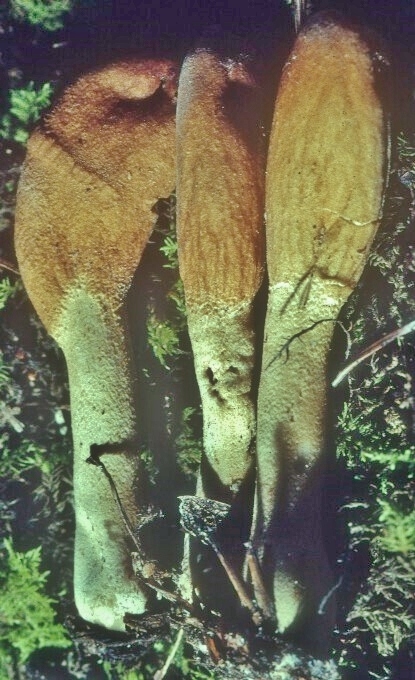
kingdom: Fungi
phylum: Ascomycota
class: Sordariomycetes
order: Hypocreales
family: Hypocreaceae
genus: Trichoderma
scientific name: Trichoderma alutaceum
